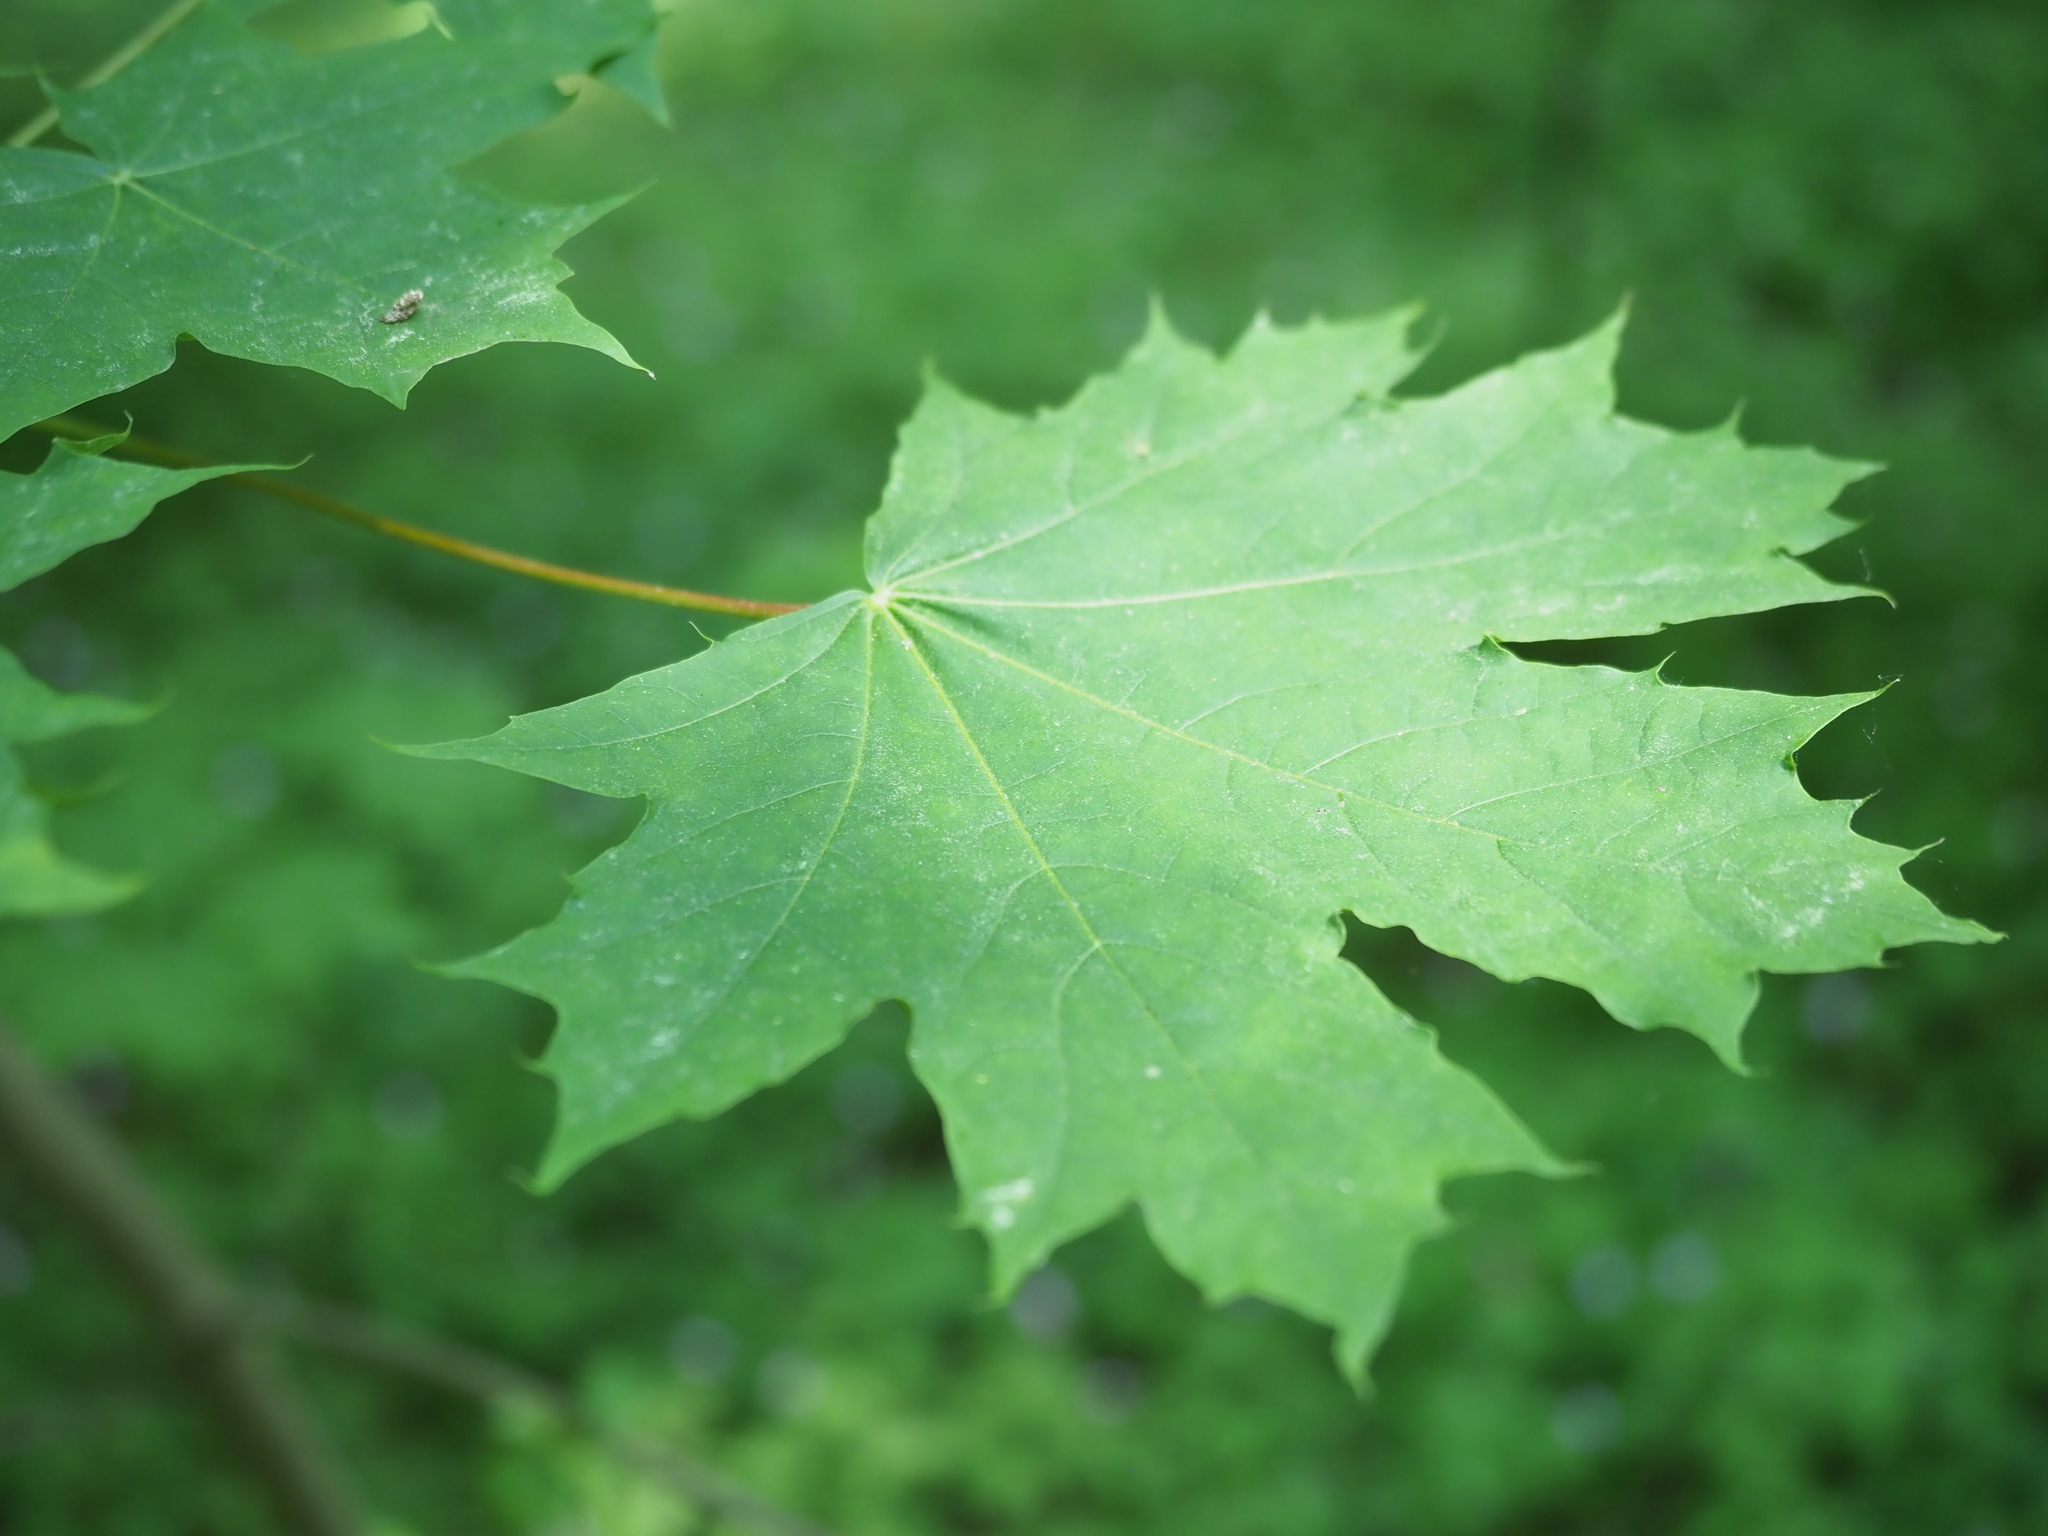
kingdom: Plantae
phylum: Tracheophyta
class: Magnoliopsida
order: Sapindales
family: Sapindaceae
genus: Acer
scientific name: Acer platanoides
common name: Norway maple
